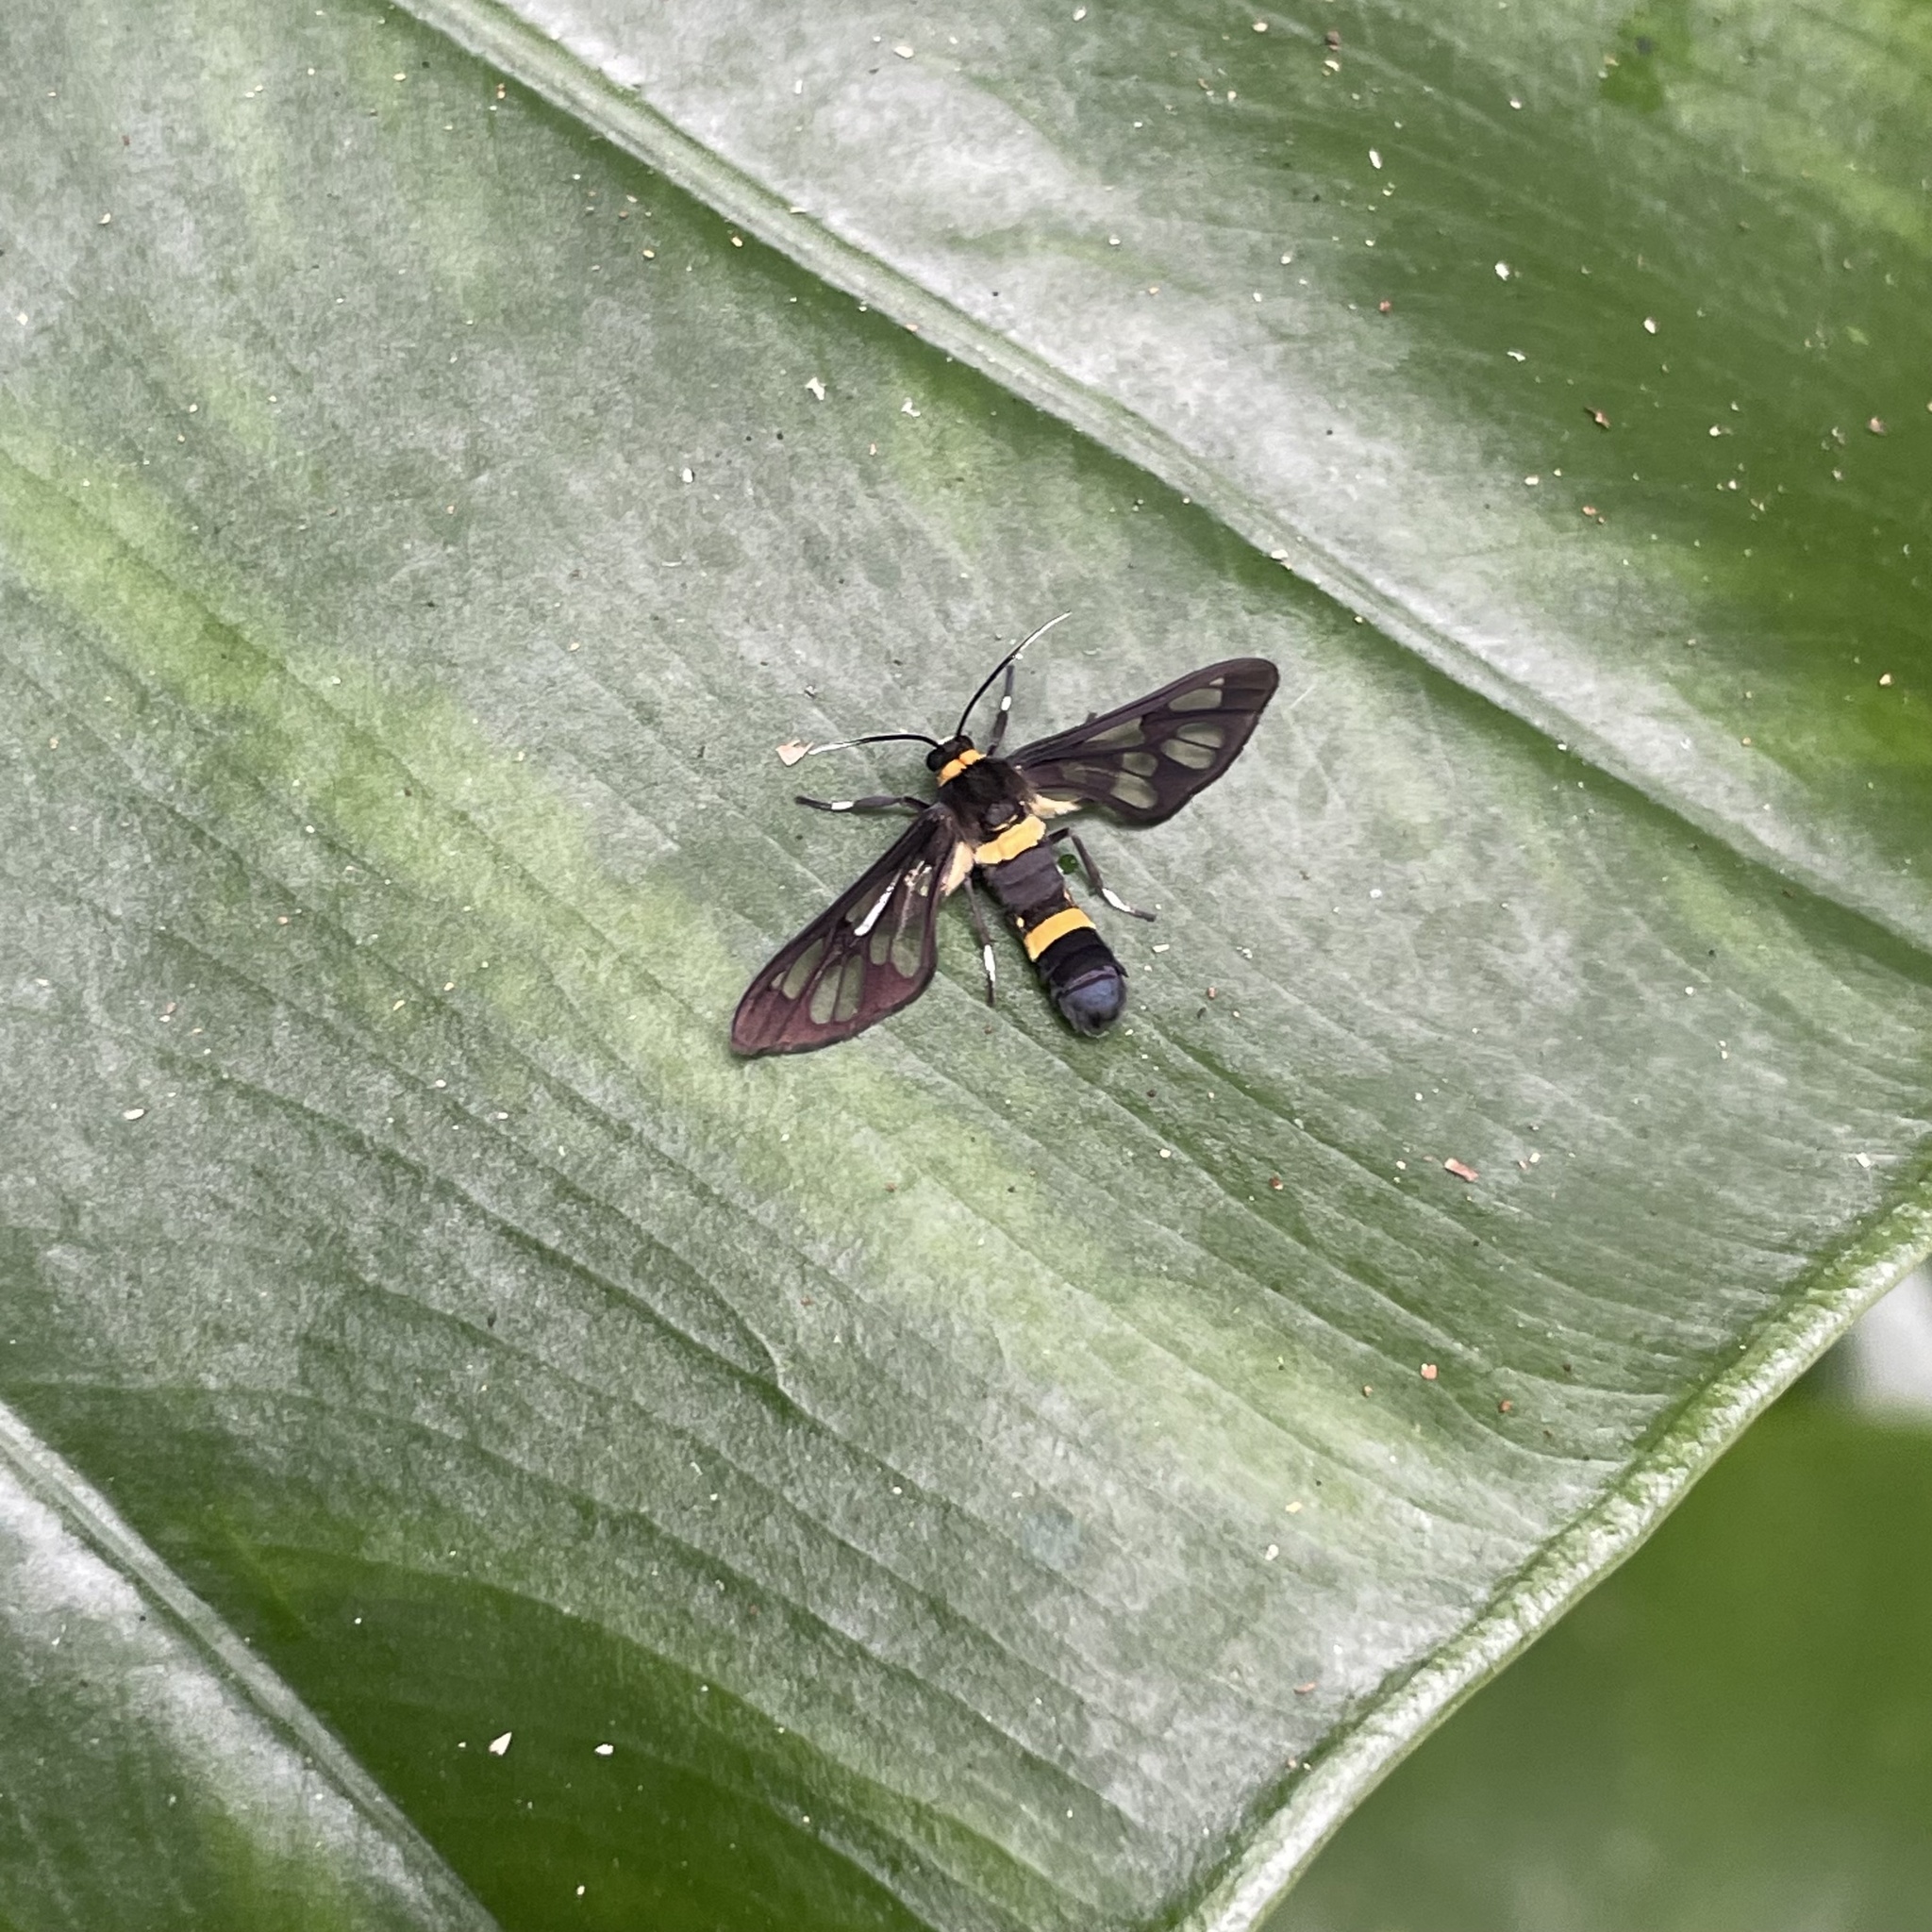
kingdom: Animalia
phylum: Arthropoda
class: Insecta
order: Lepidoptera
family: Erebidae
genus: Syntomoides
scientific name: Syntomoides imaon
